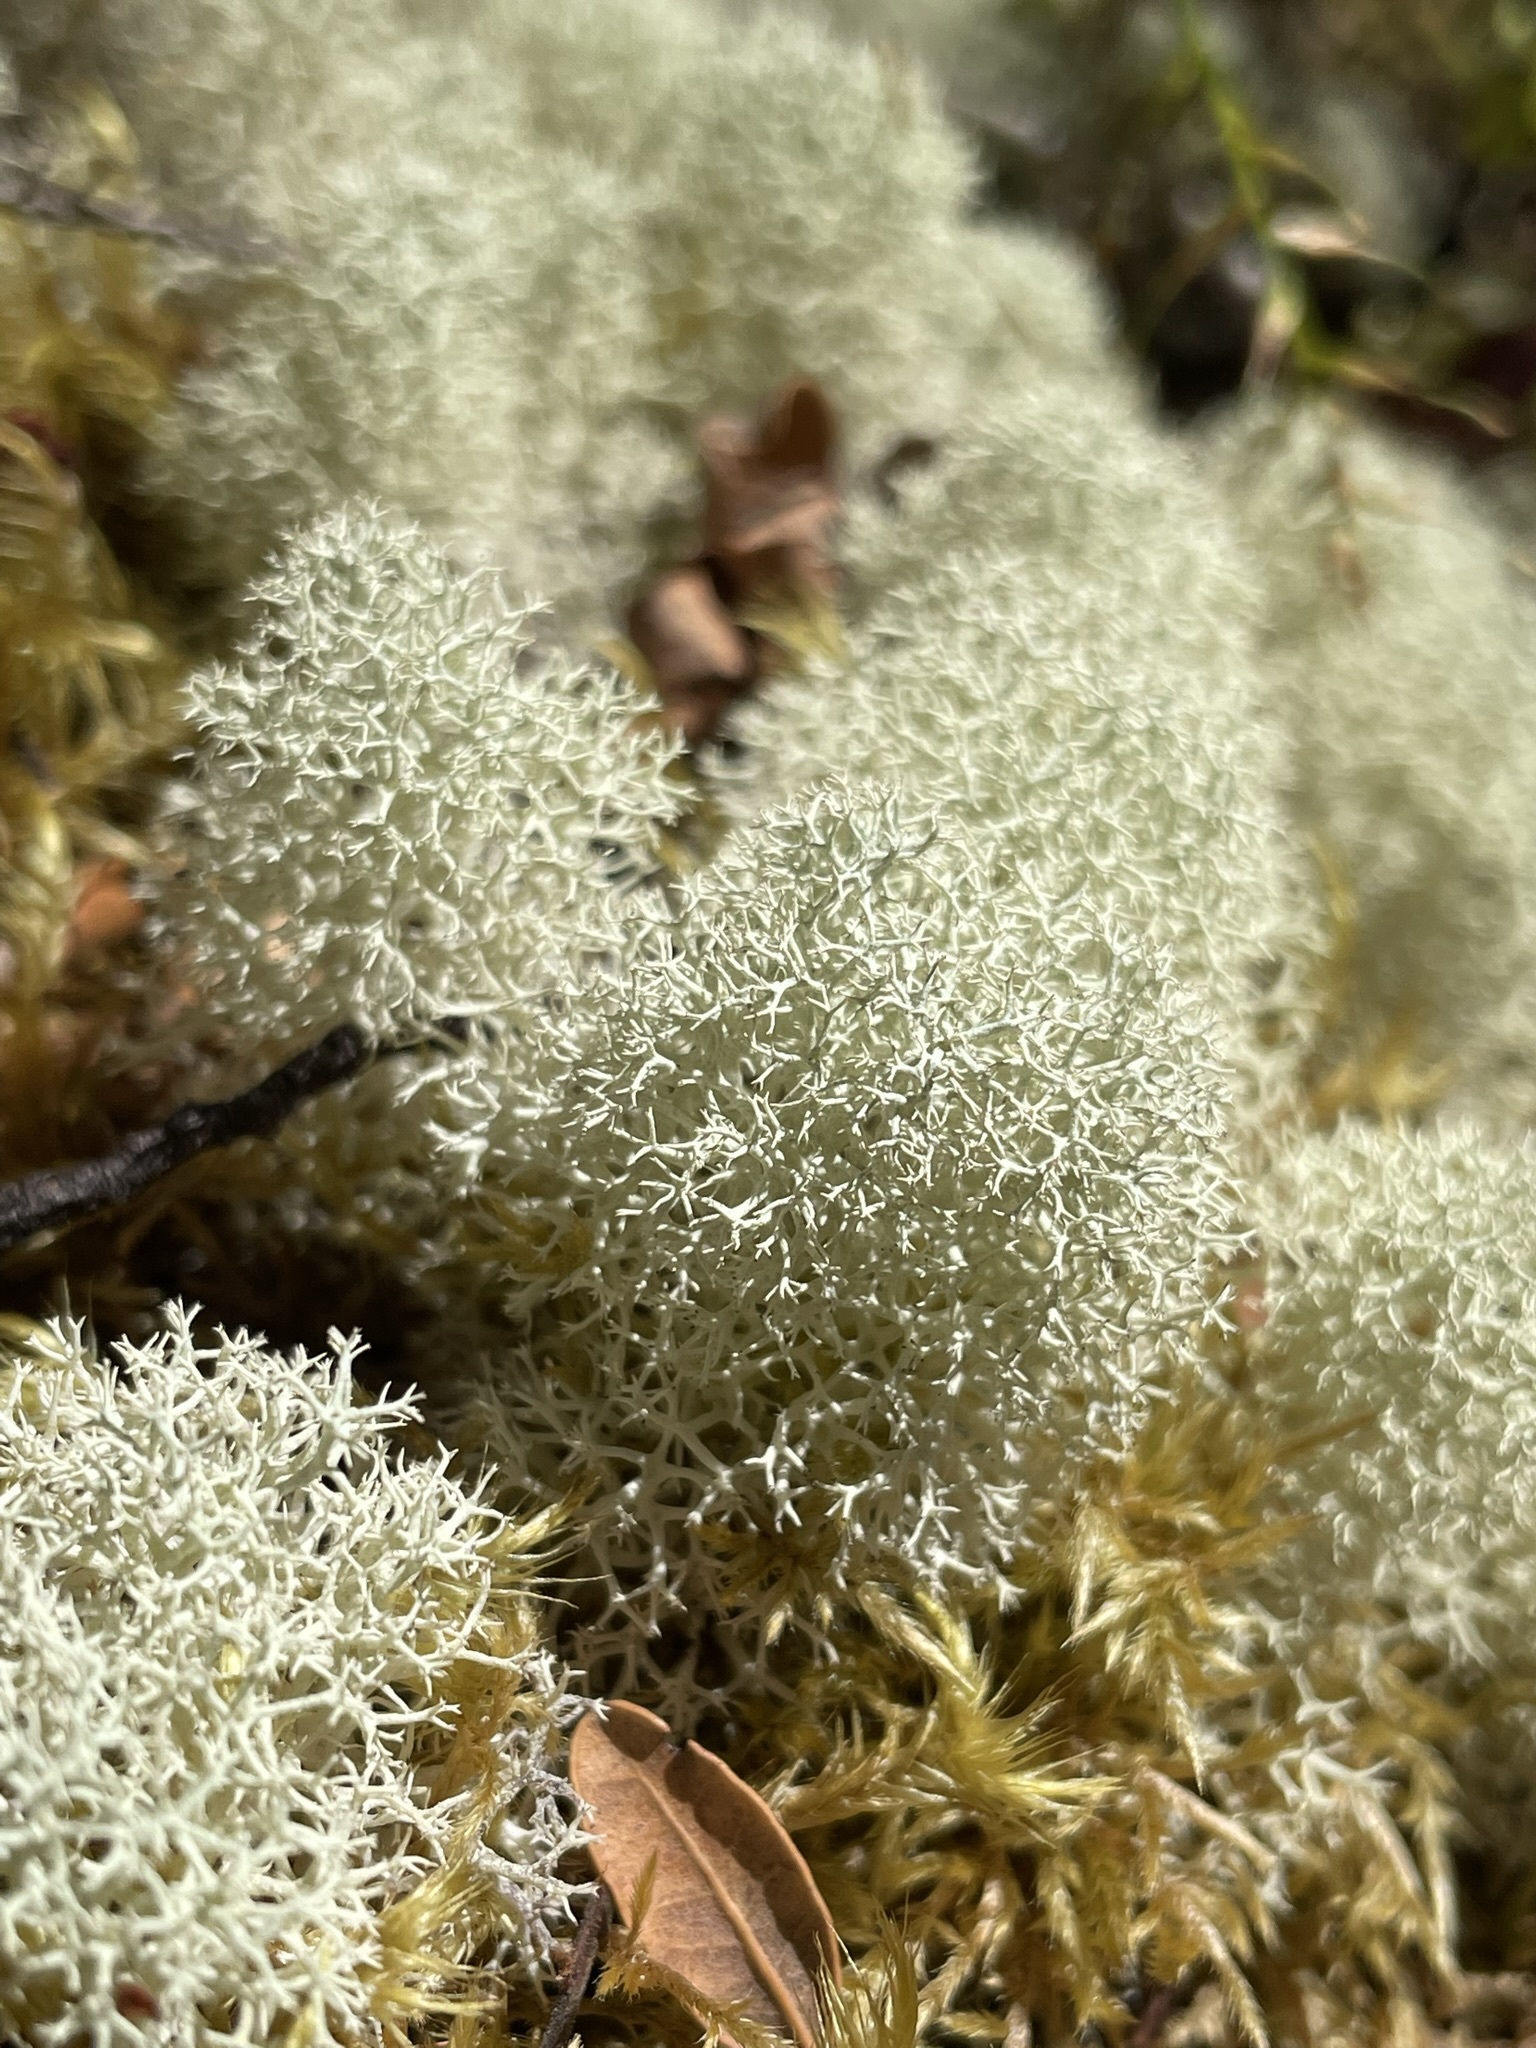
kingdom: Fungi
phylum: Ascomycota
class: Lecanoromycetes
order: Lecanorales
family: Cladoniaceae
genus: Cladonia
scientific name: Cladonia confusa
